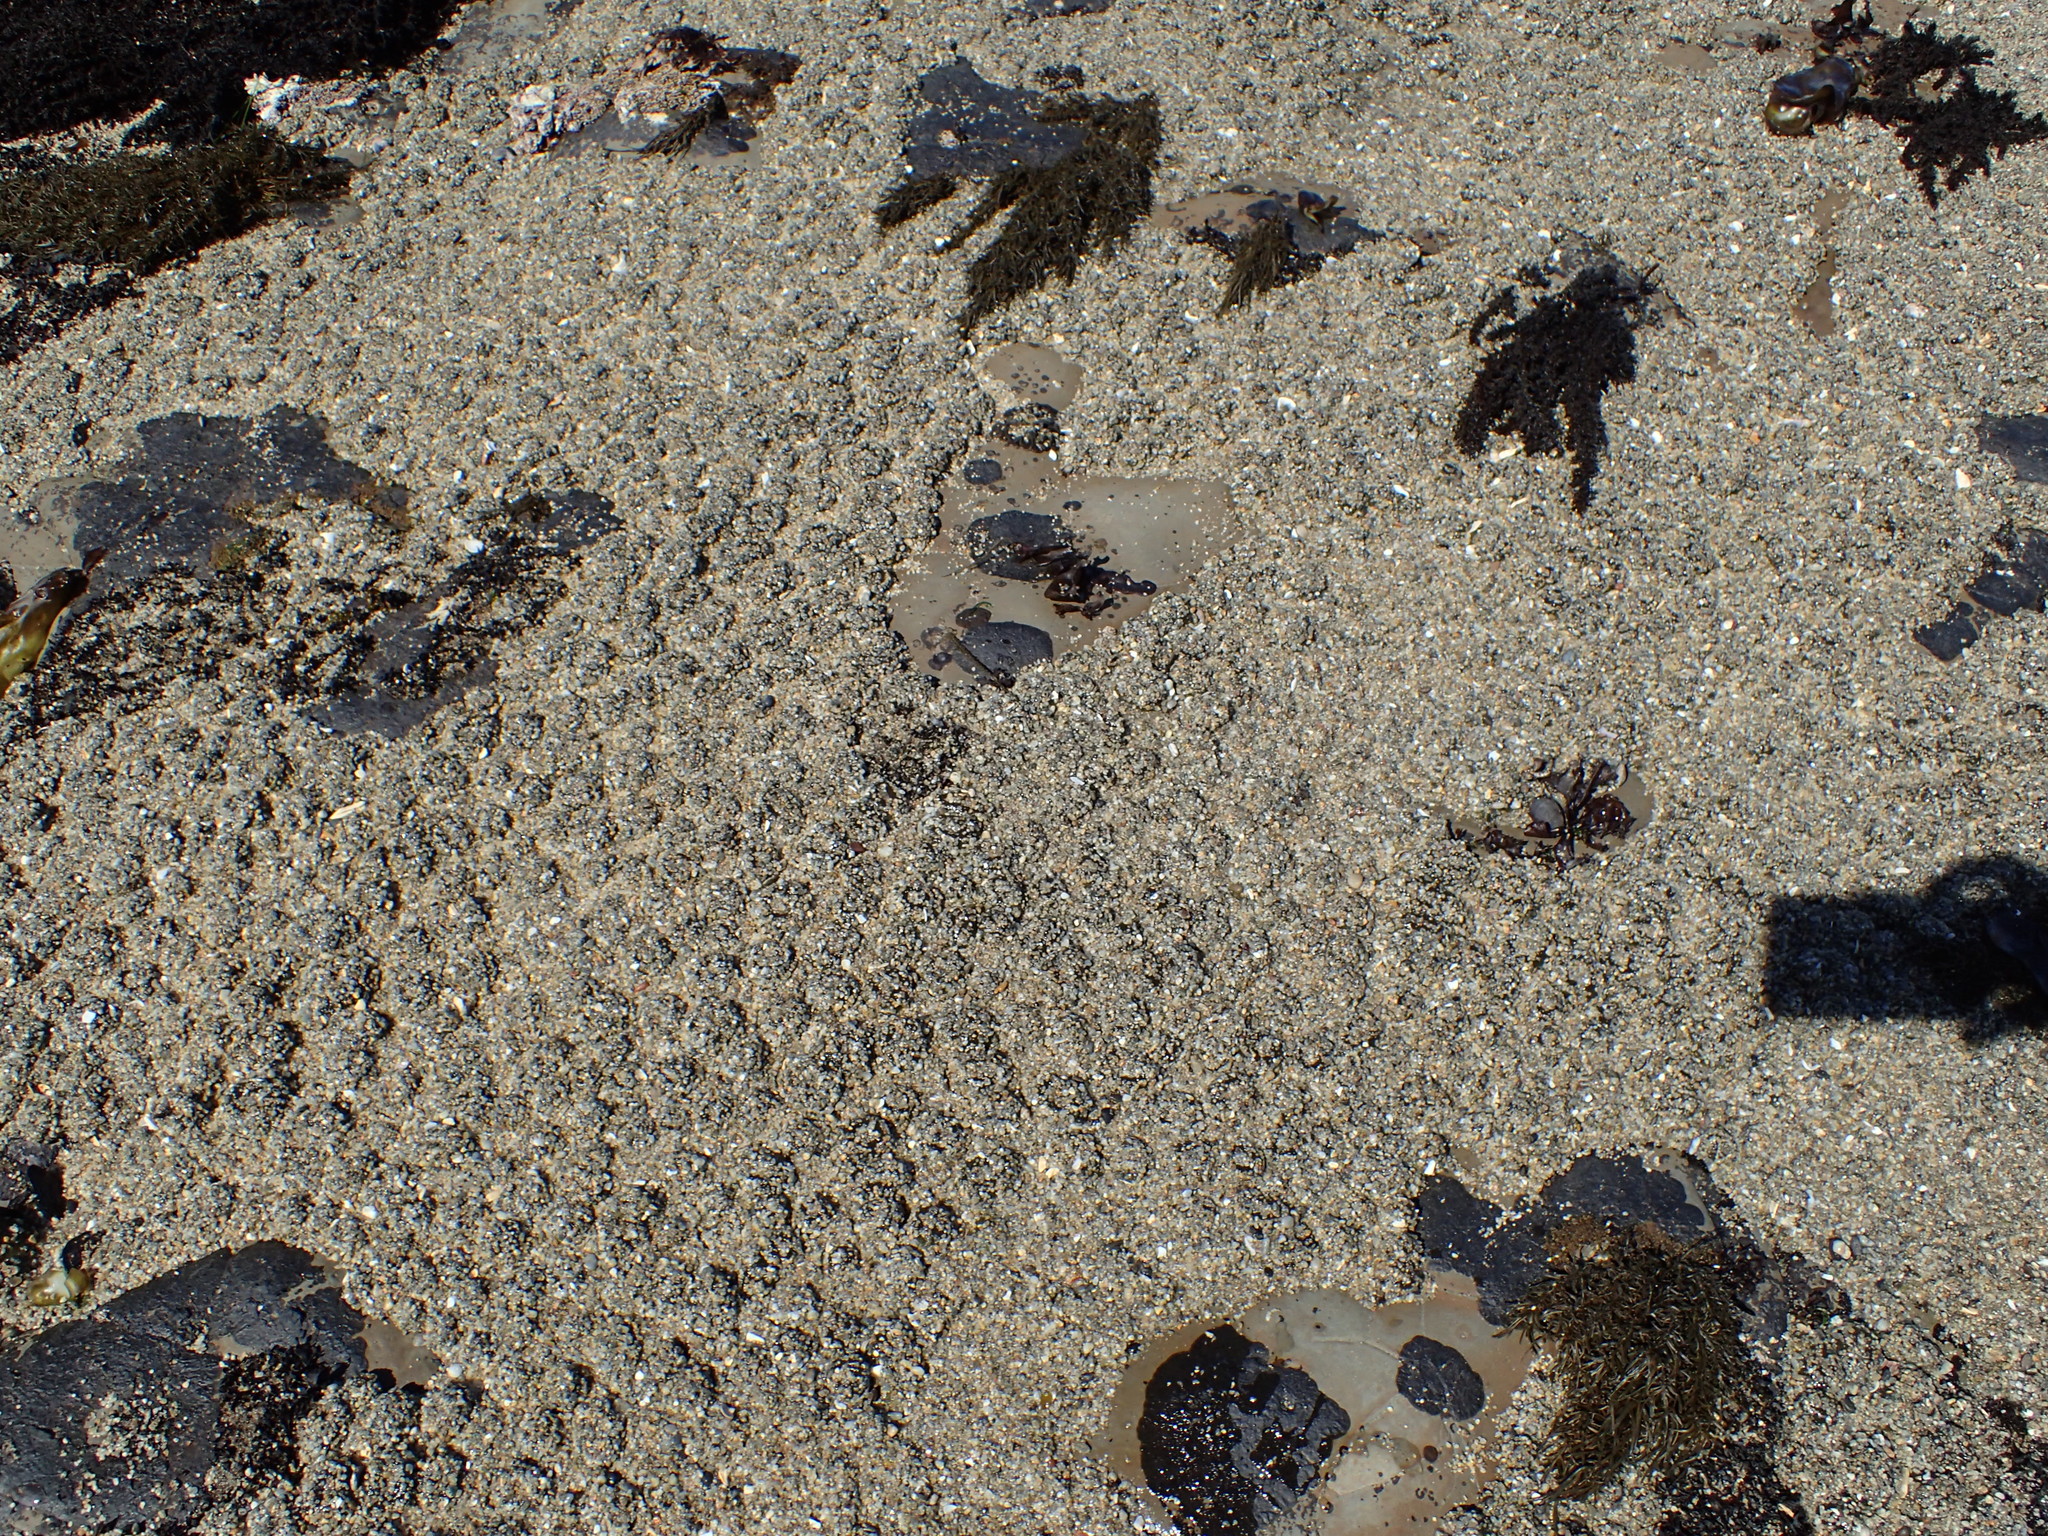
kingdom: Animalia
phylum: Cnidaria
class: Anthozoa
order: Actiniaria
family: Actiniidae
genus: Anthopleura
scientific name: Anthopleura elegantissima
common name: Clonal anemone
